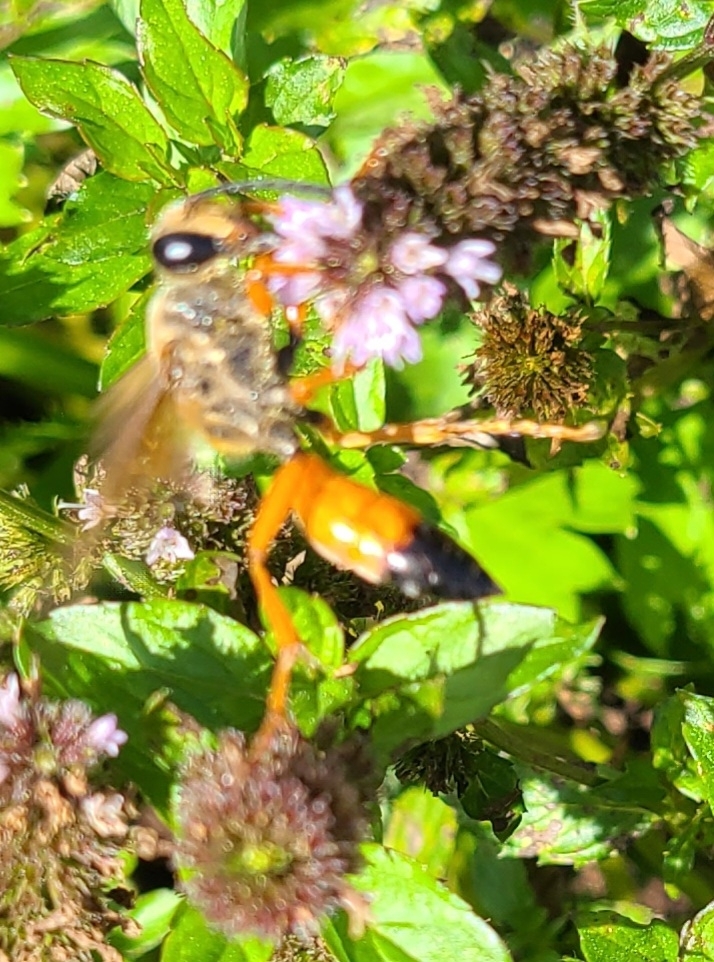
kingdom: Animalia
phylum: Arthropoda
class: Insecta
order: Hymenoptera
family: Sphecidae
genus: Sphex
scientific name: Sphex ichneumoneus
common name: Great golden digger wasp
